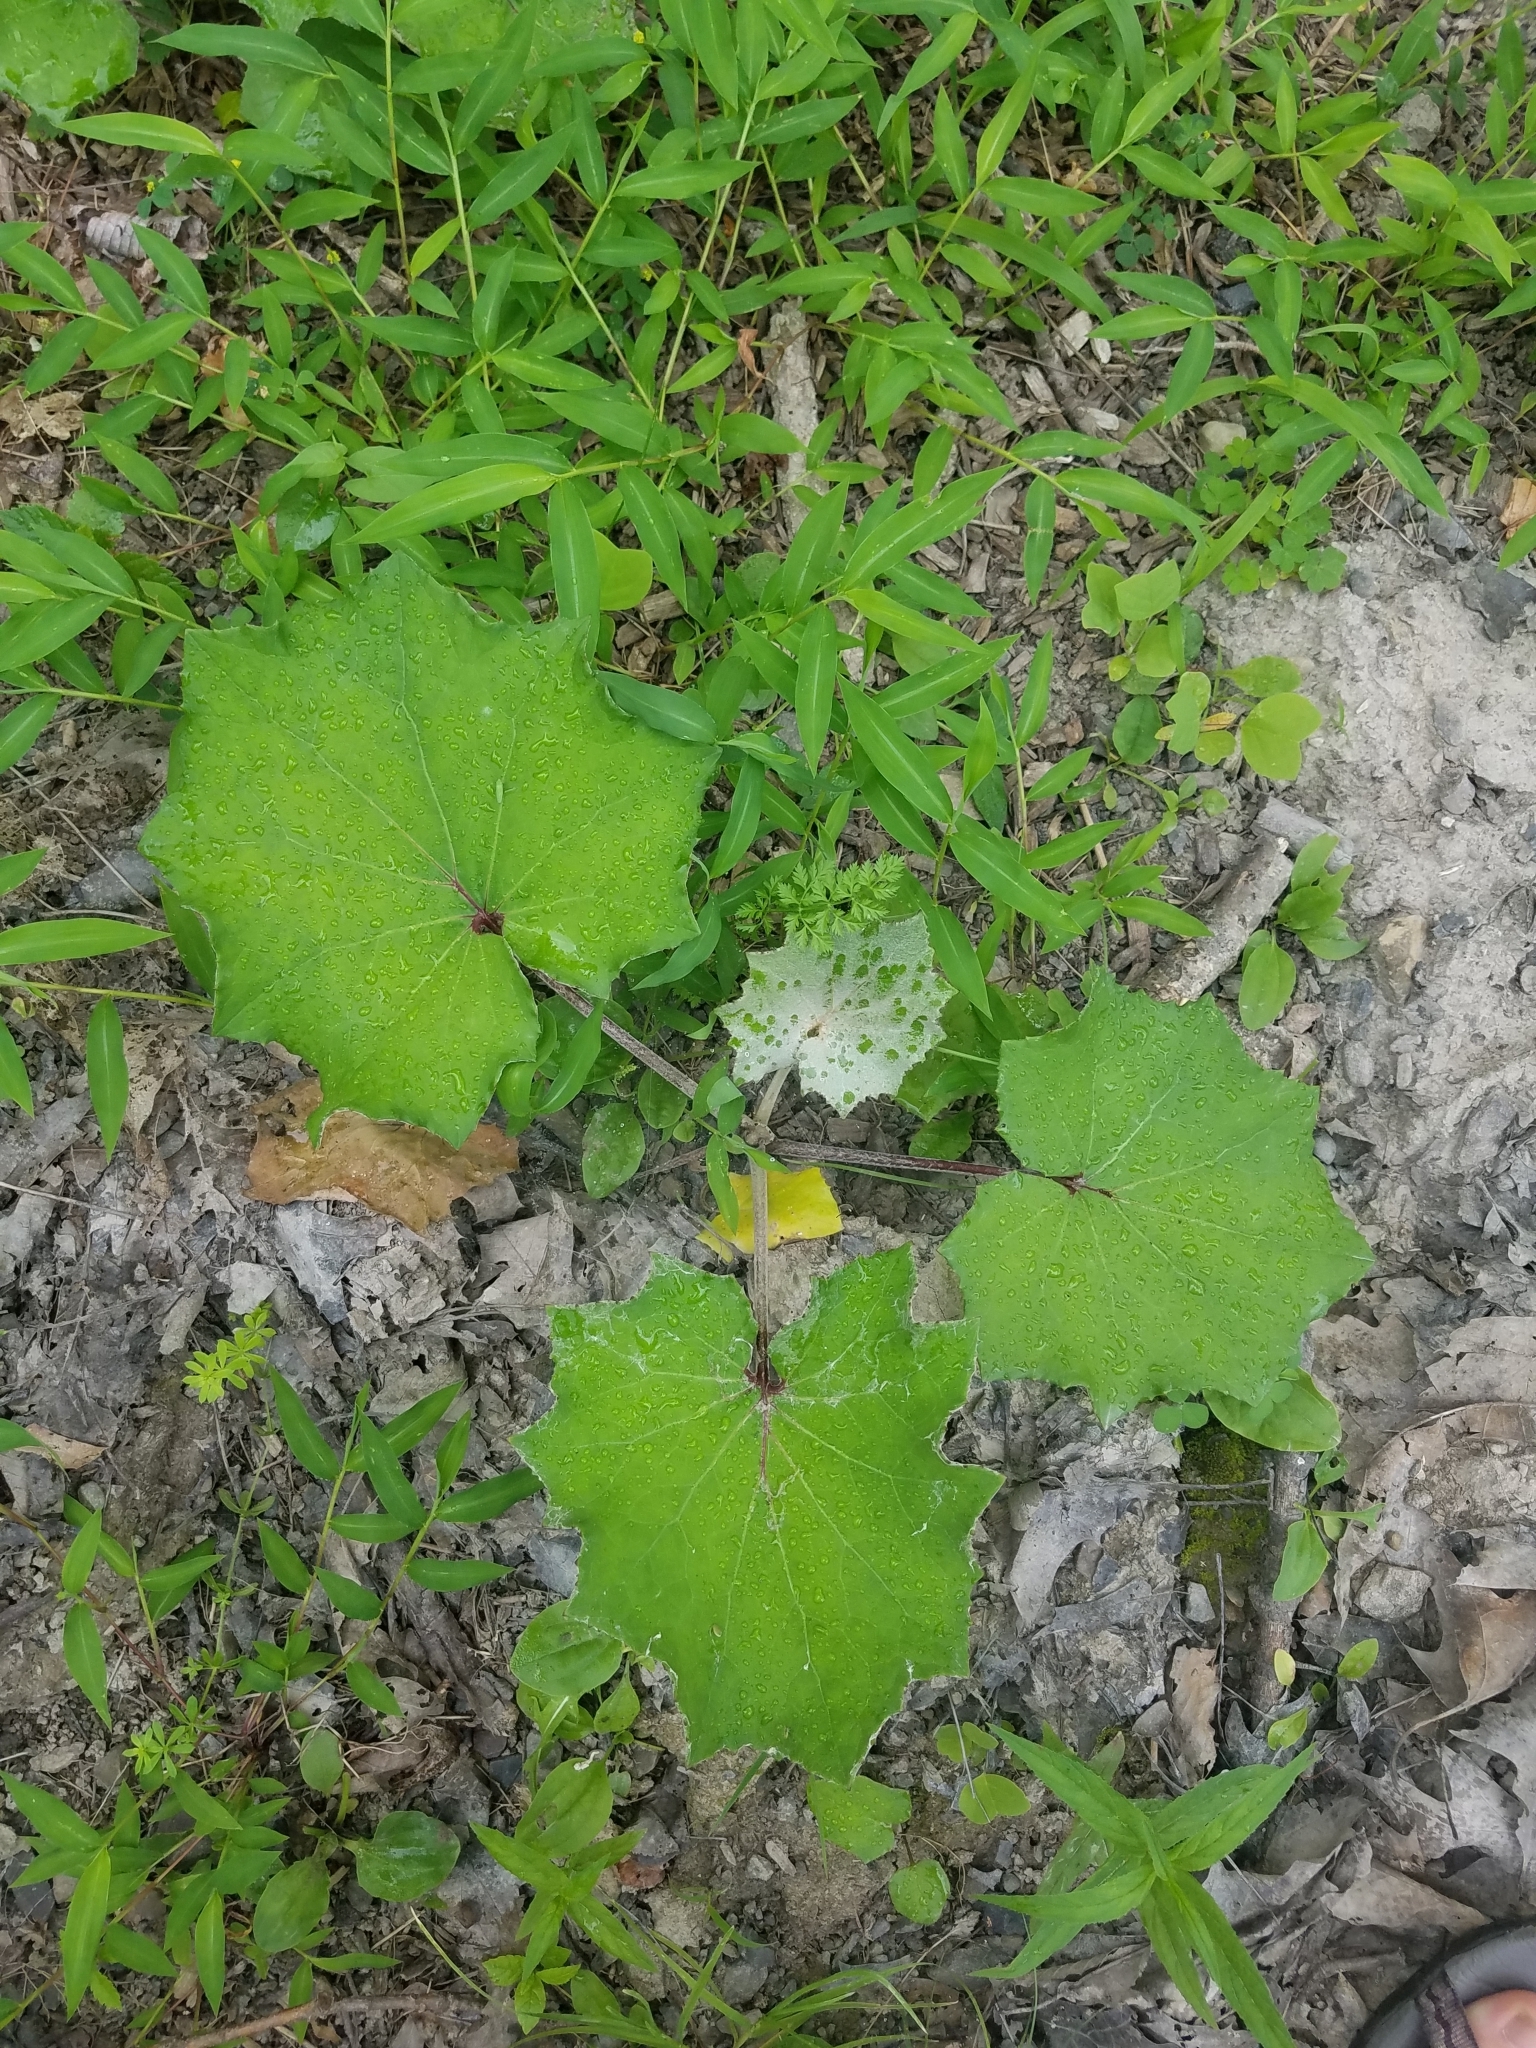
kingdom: Plantae
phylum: Tracheophyta
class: Magnoliopsida
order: Asterales
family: Asteraceae
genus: Tussilago
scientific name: Tussilago farfara
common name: Coltsfoot
